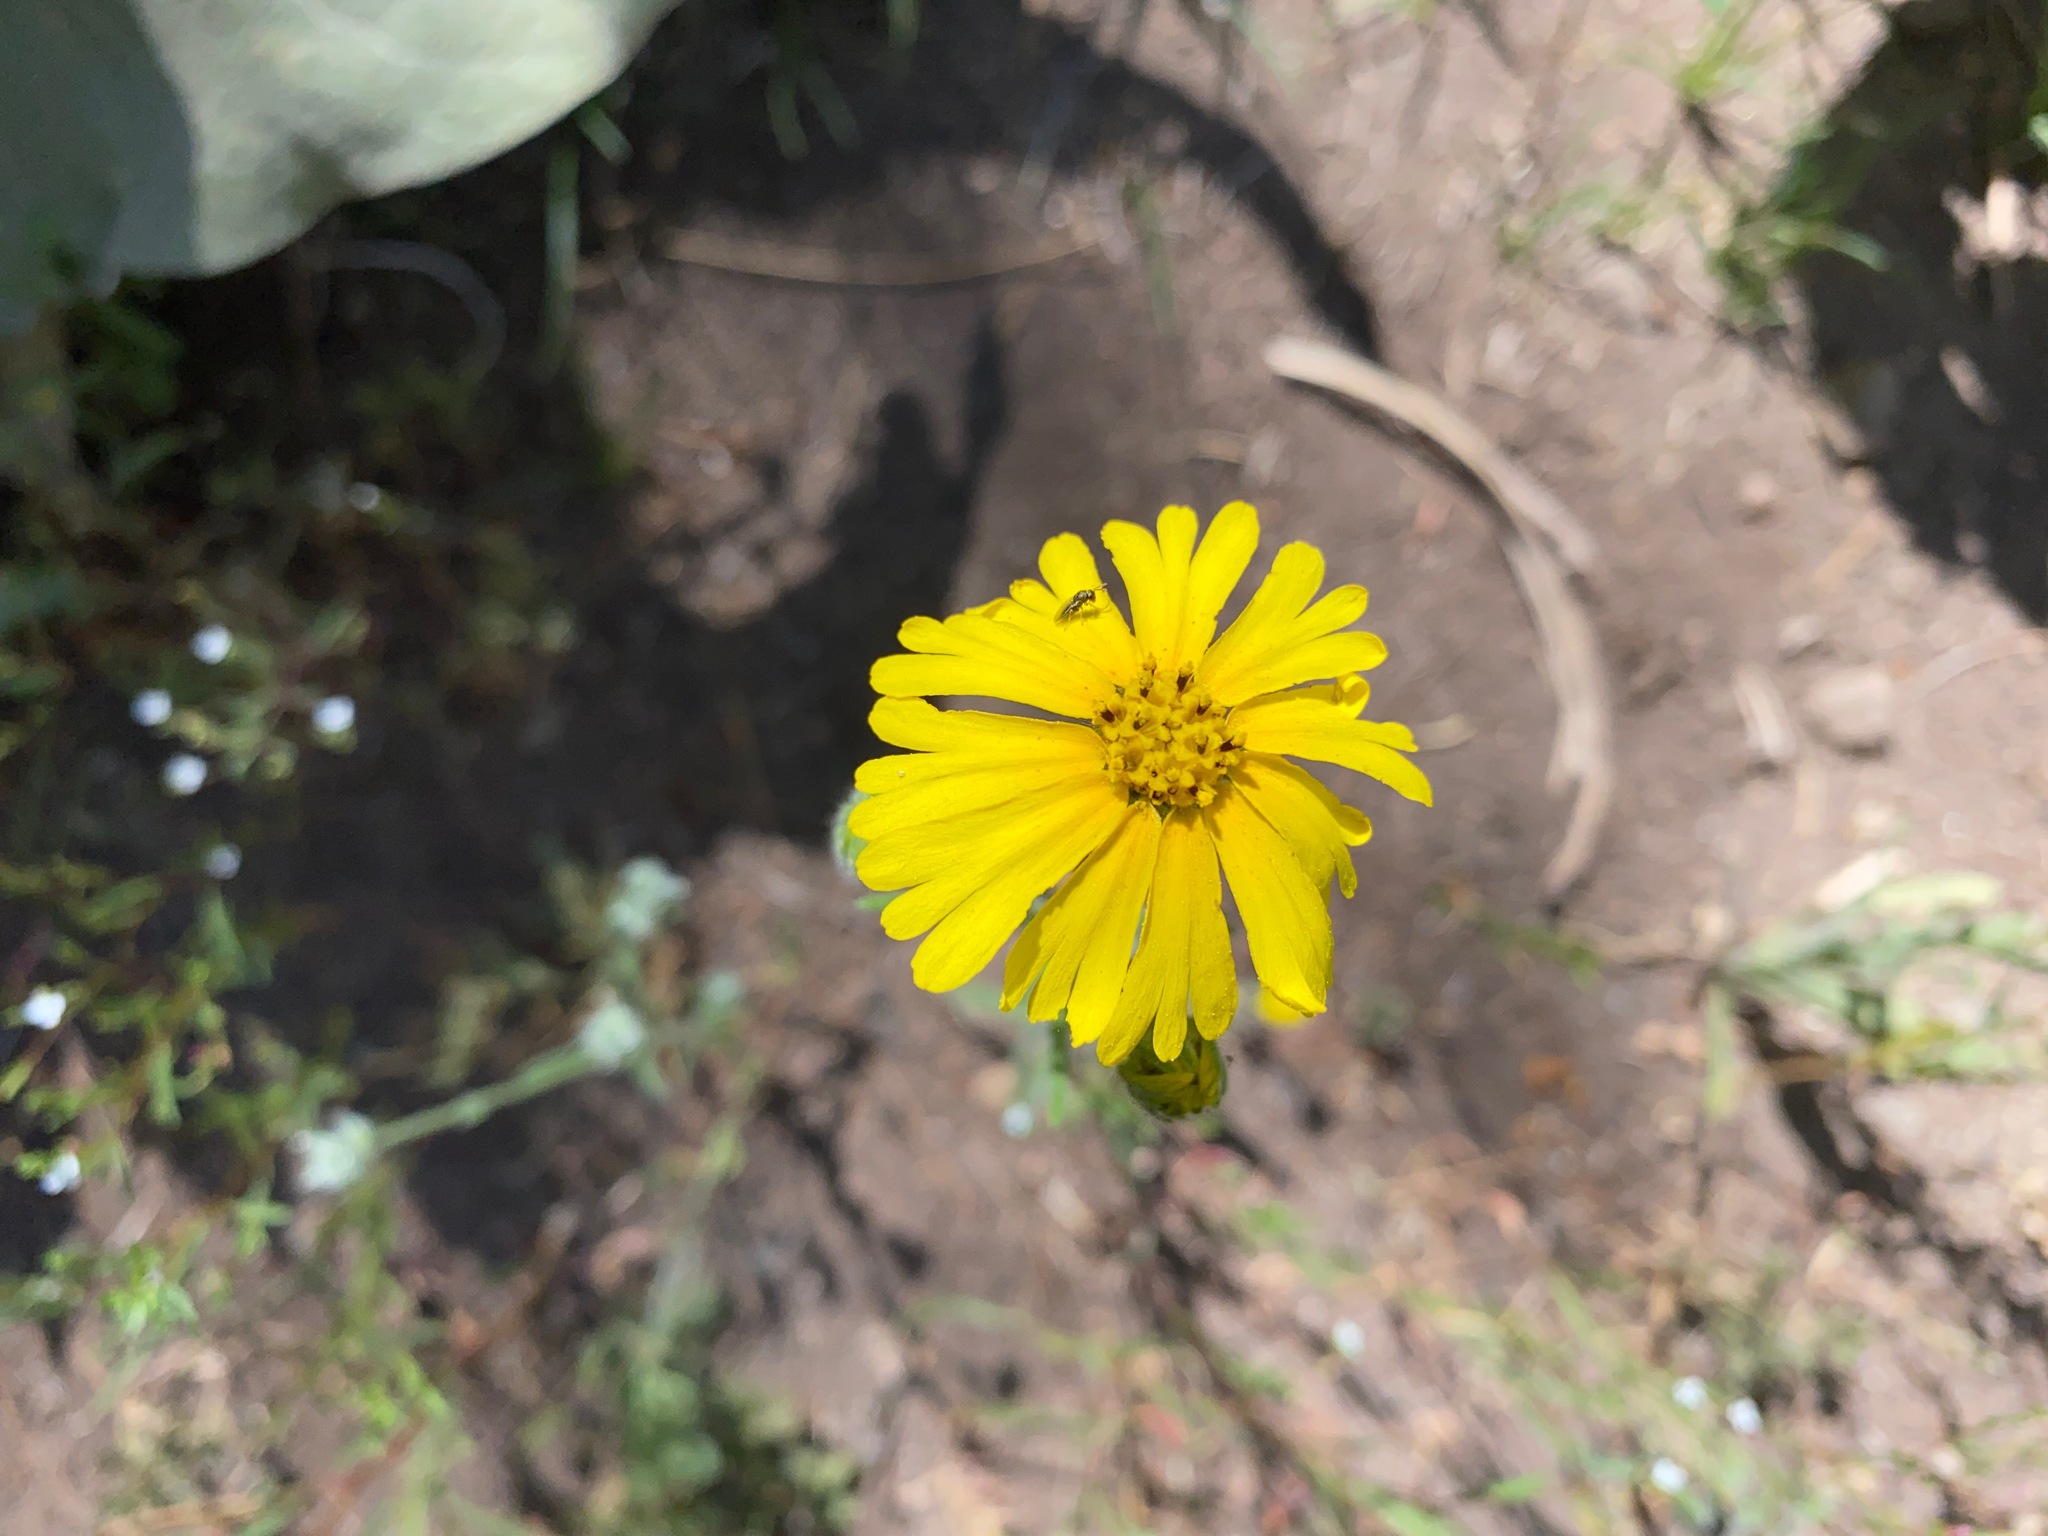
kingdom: Plantae
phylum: Tracheophyta
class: Magnoliopsida
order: Asterales
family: Asteraceae
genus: Madia
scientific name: Madia elegans
